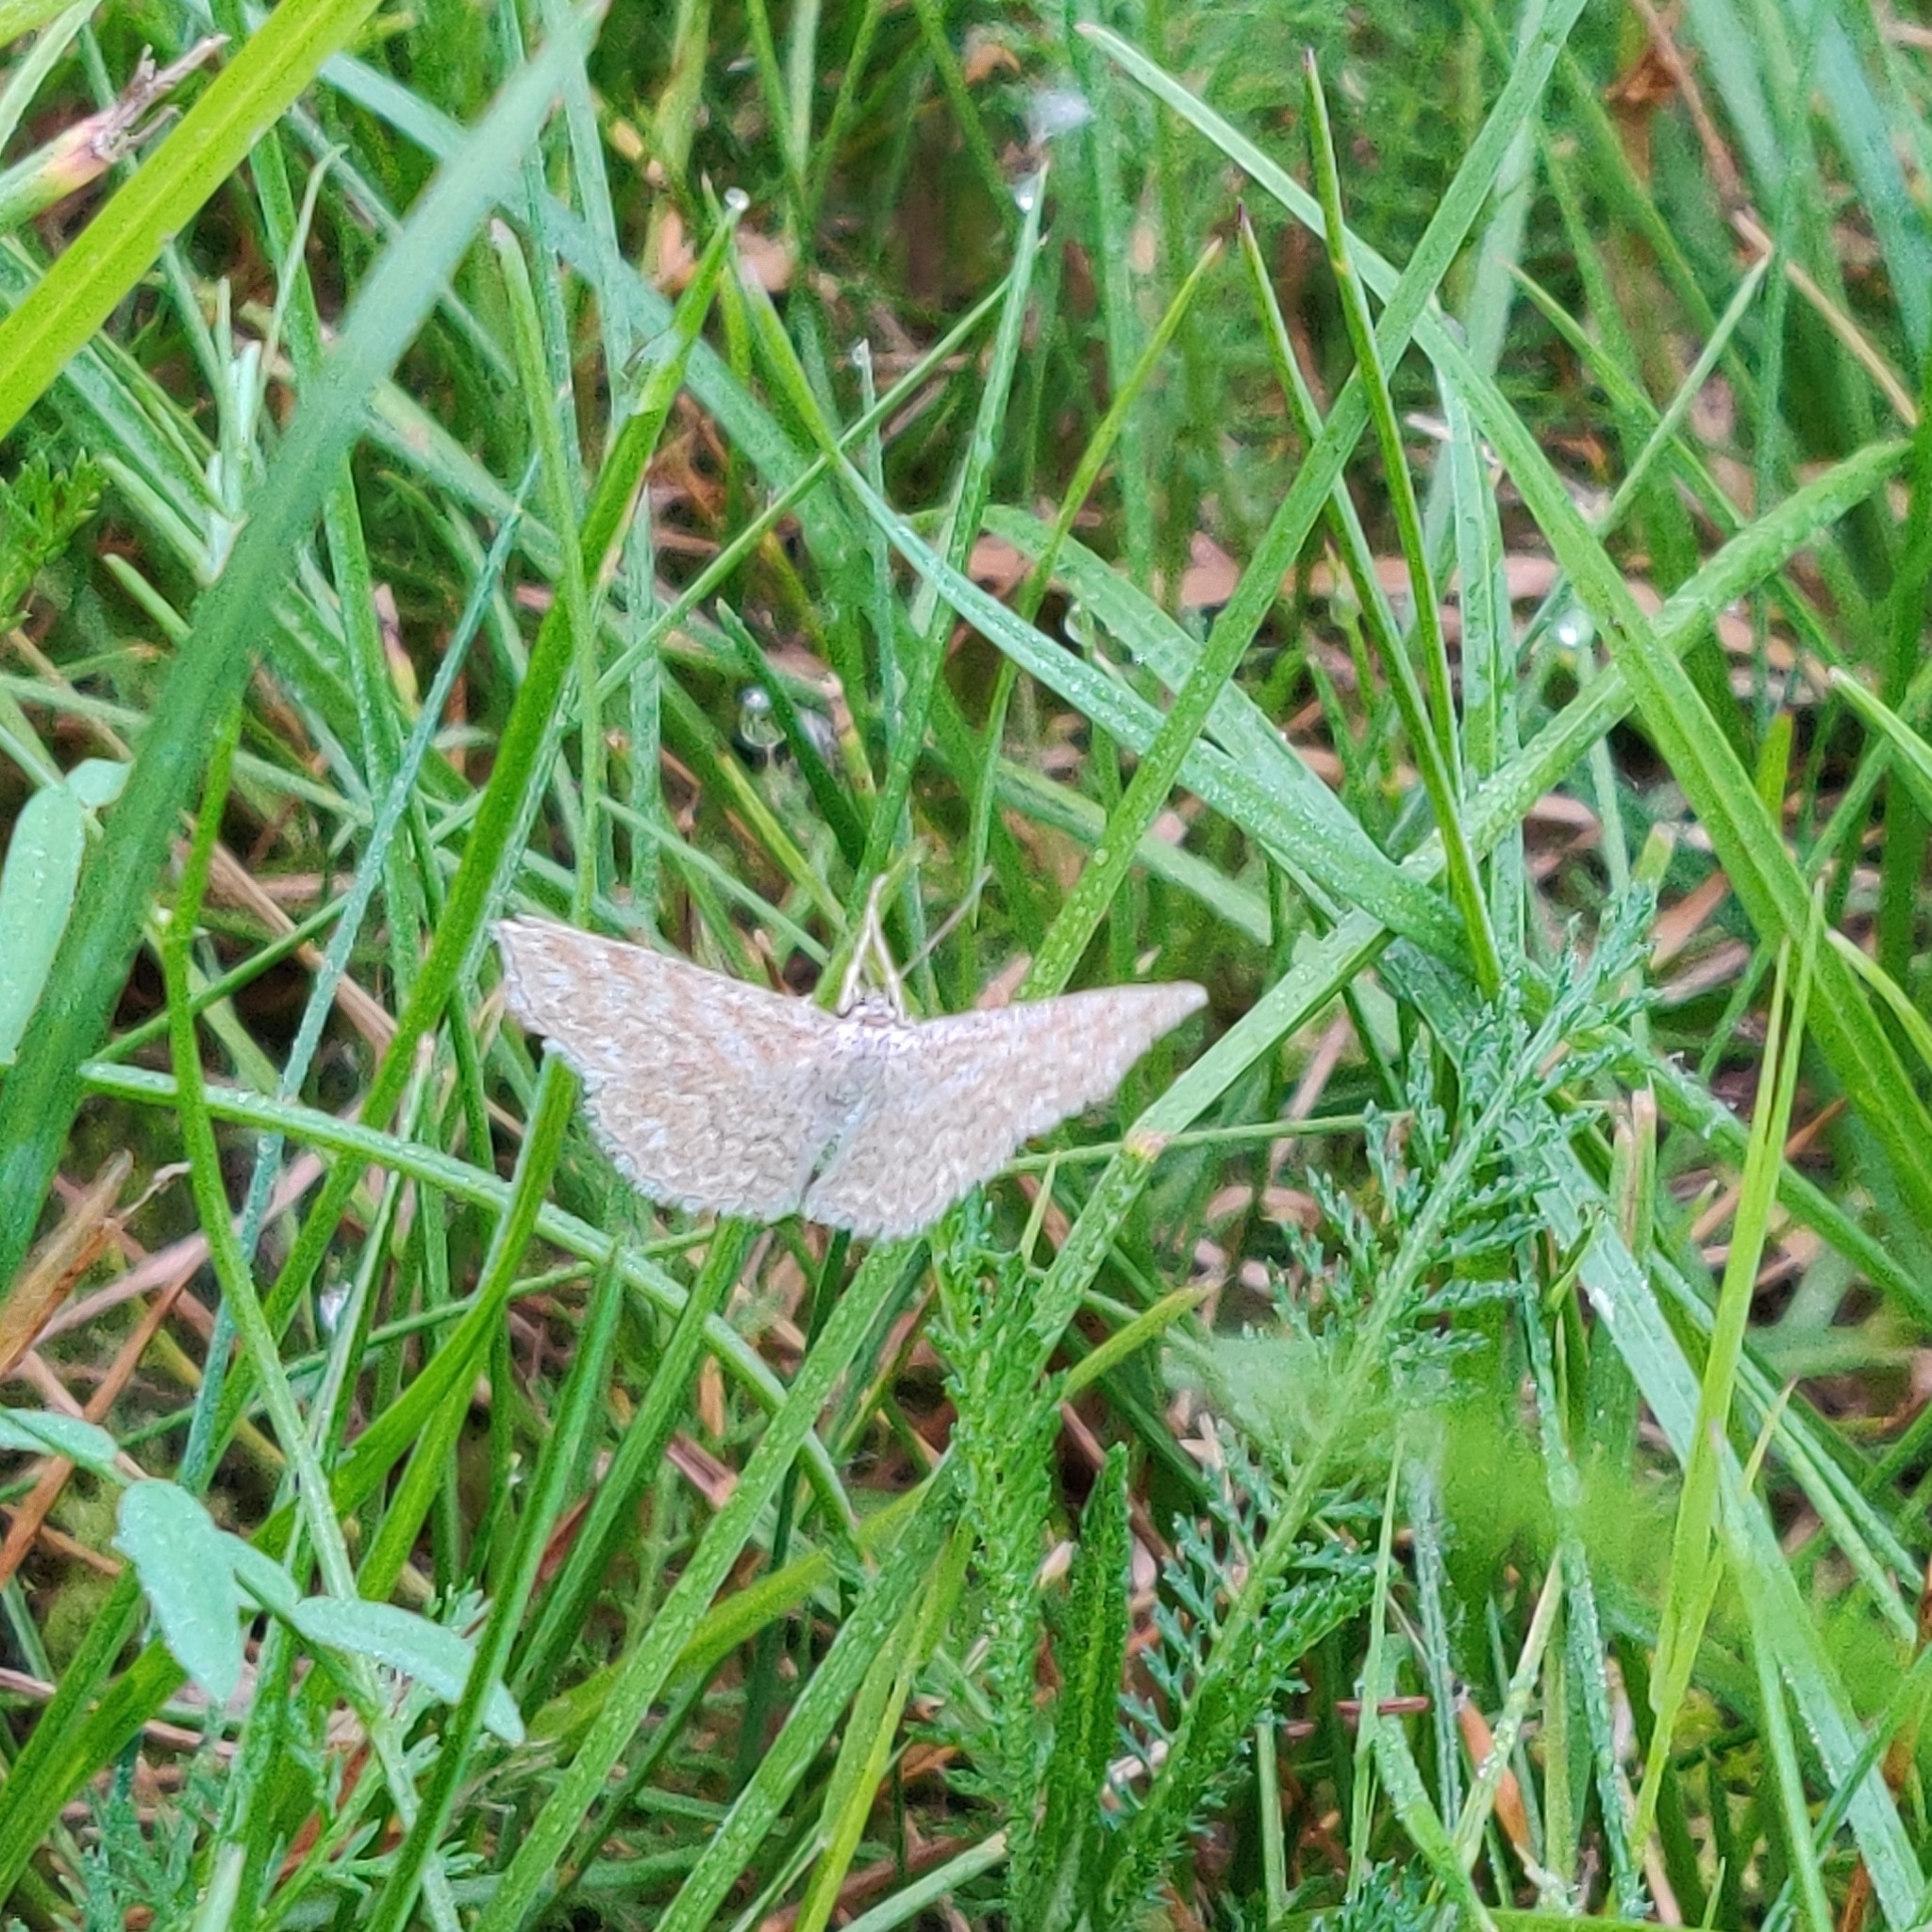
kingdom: Animalia
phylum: Arthropoda
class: Insecta
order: Lepidoptera
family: Geometridae
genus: Scopula
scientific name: Scopula immorata
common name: Lewes wave
